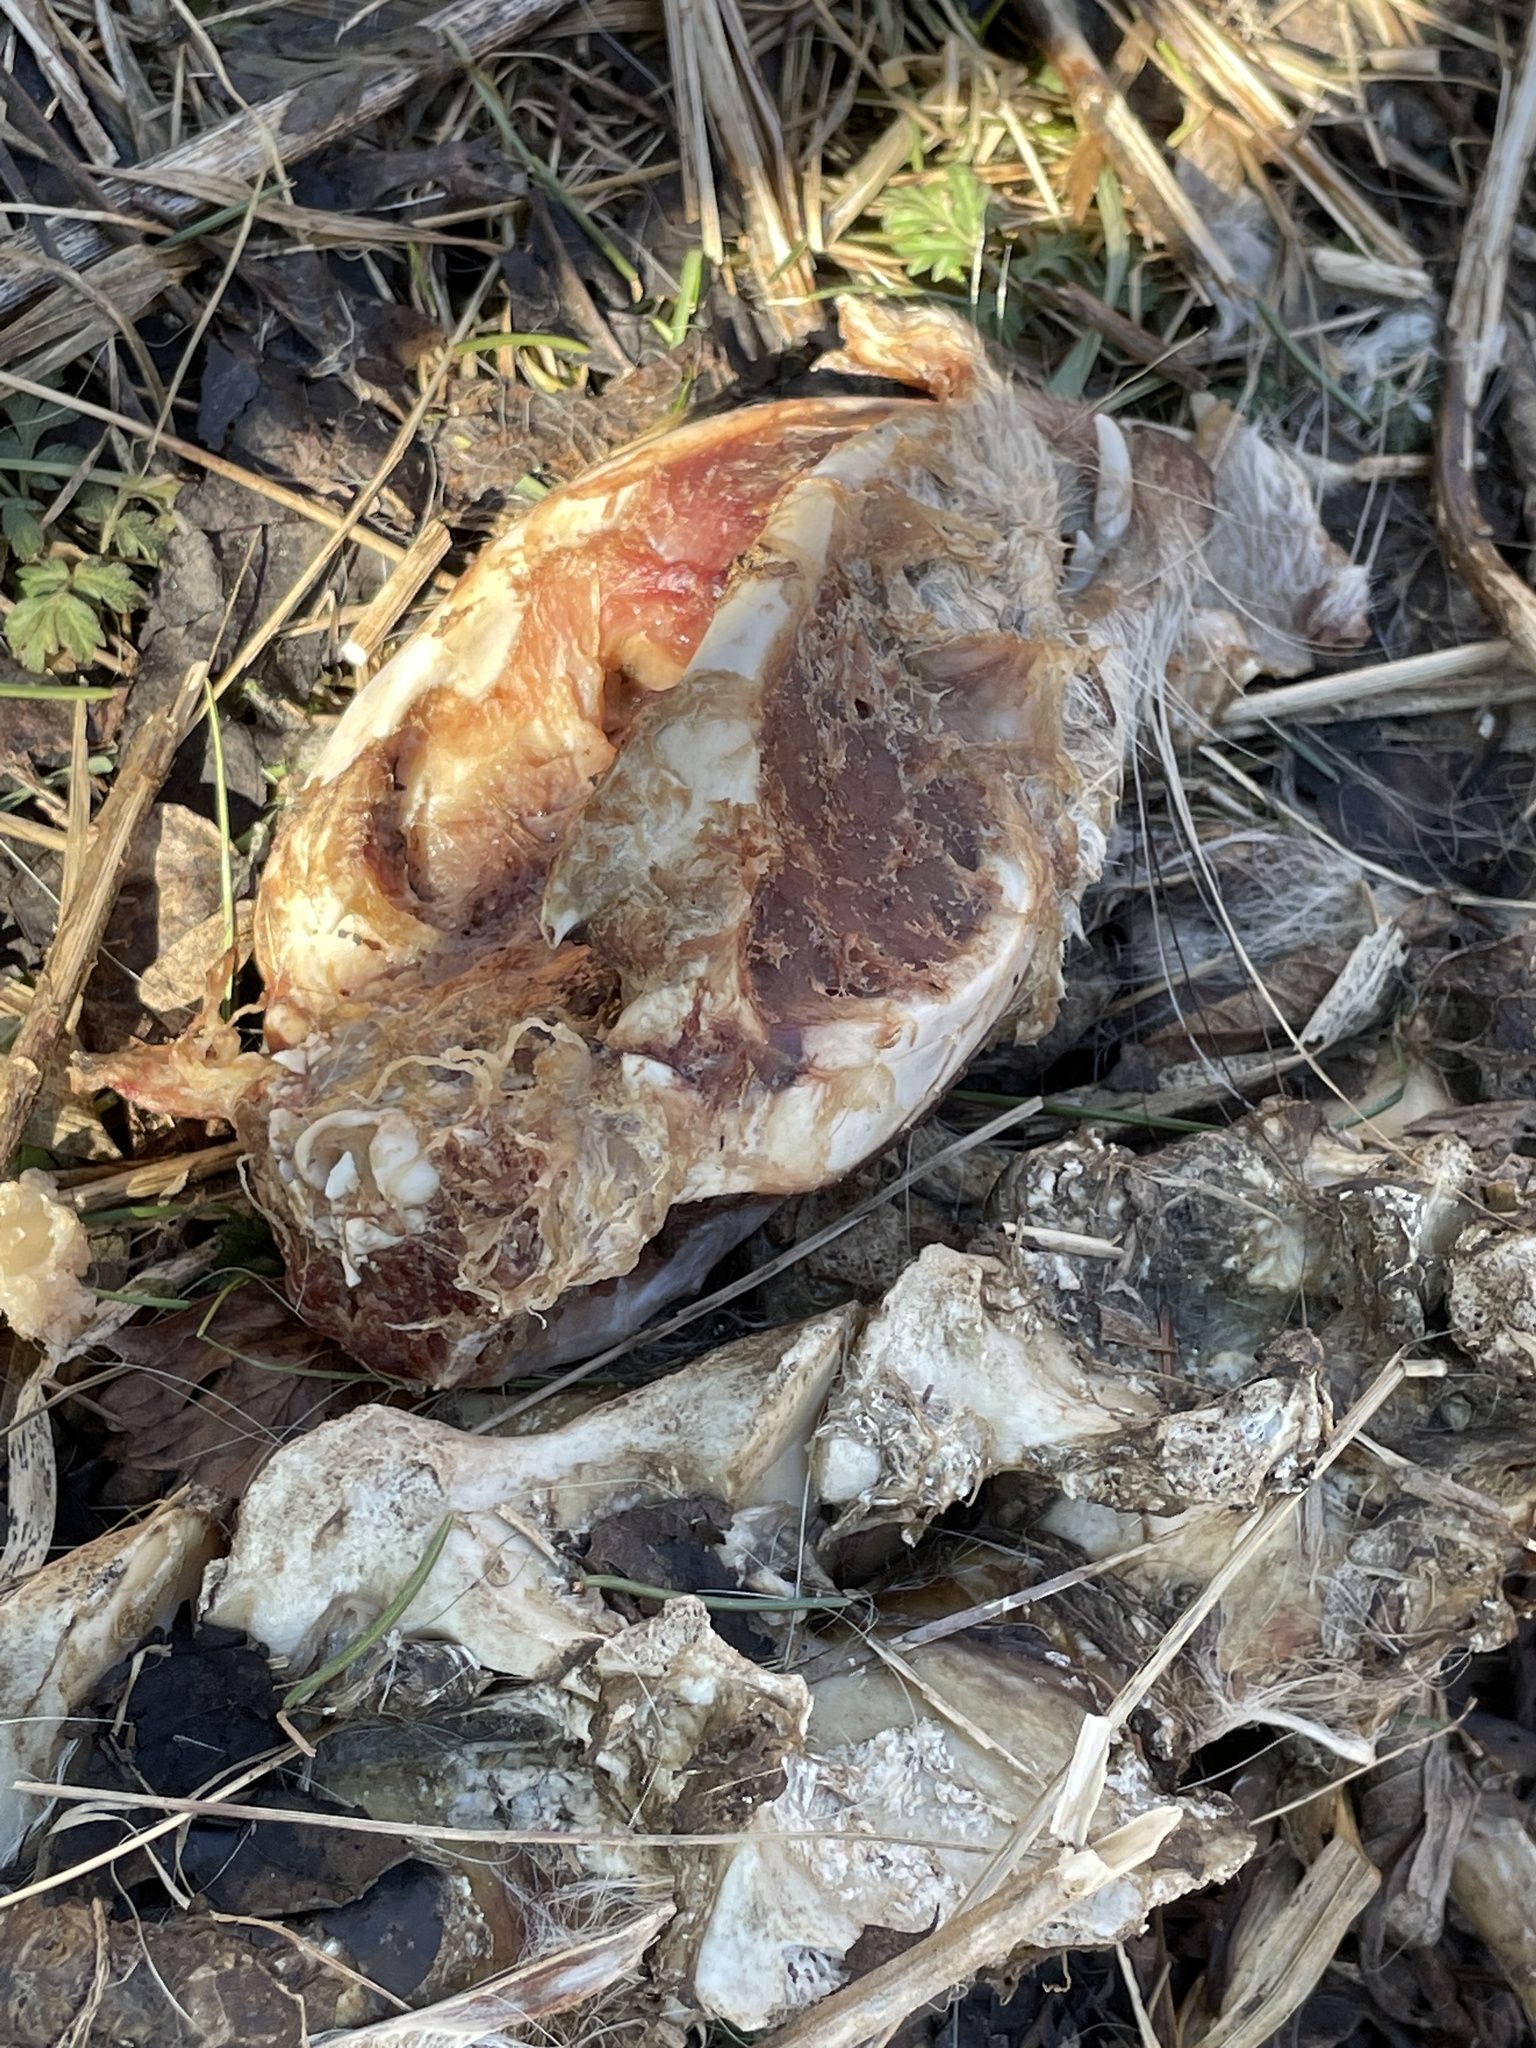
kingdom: Animalia
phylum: Chordata
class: Mammalia
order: Didelphimorphia
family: Didelphidae
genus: Didelphis
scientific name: Didelphis virginiana
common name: Virginia opossum
